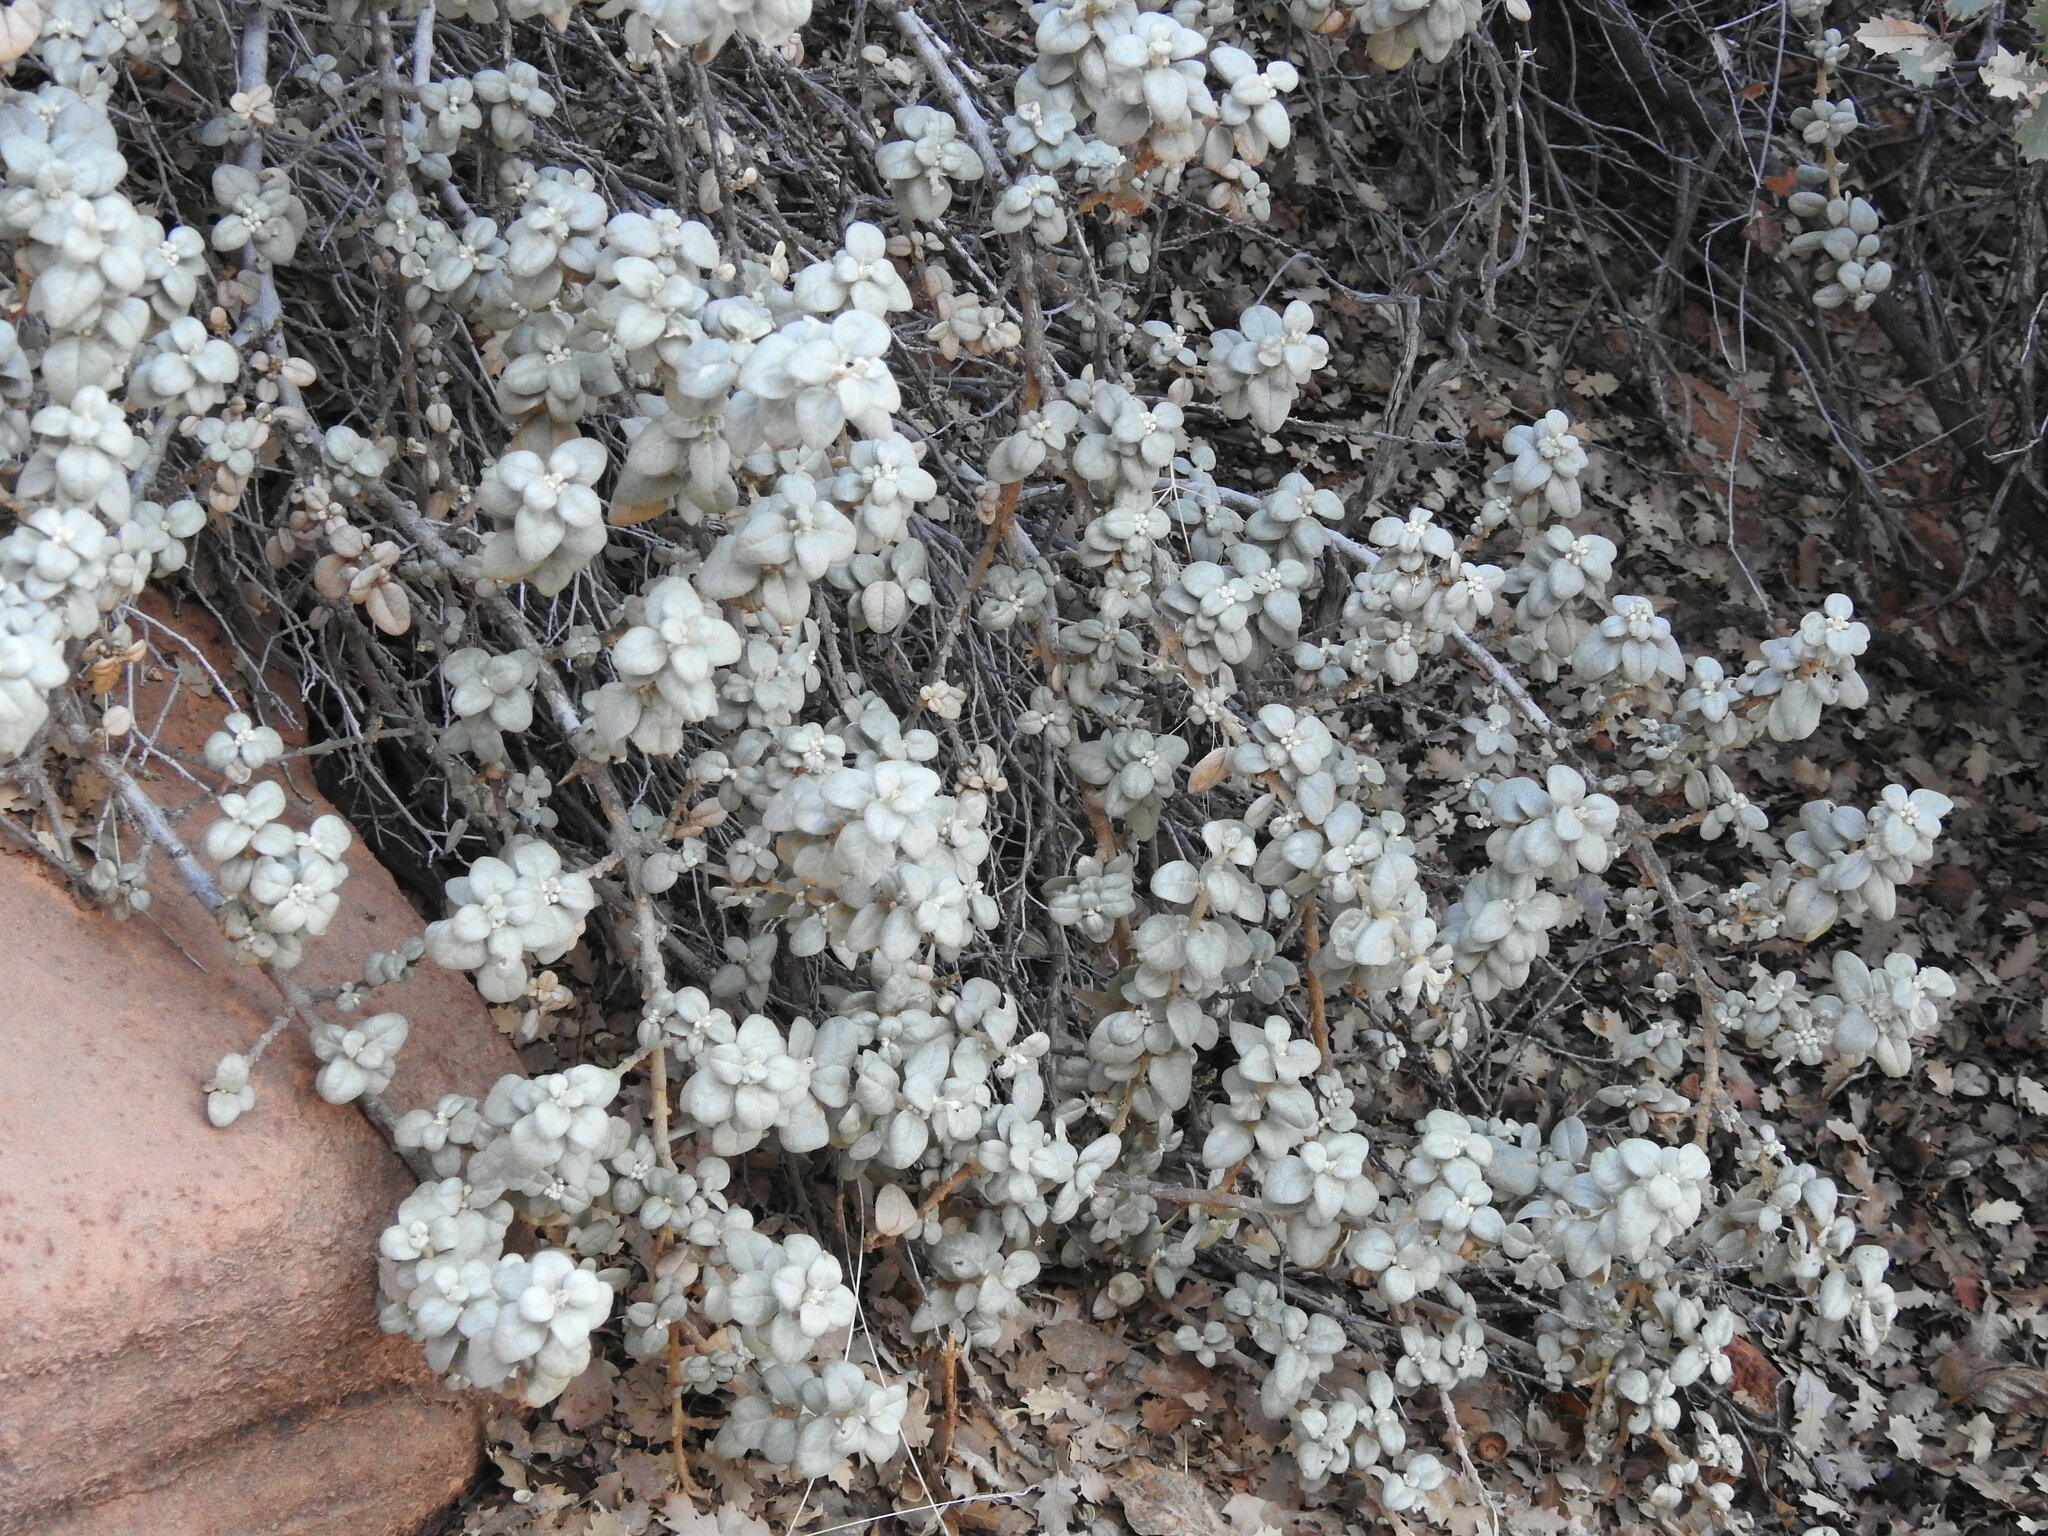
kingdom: Plantae
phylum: Tracheophyta
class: Magnoliopsida
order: Rosales
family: Elaeagnaceae
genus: Shepherdia
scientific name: Shepherdia rotundifolia
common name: Silverscale
